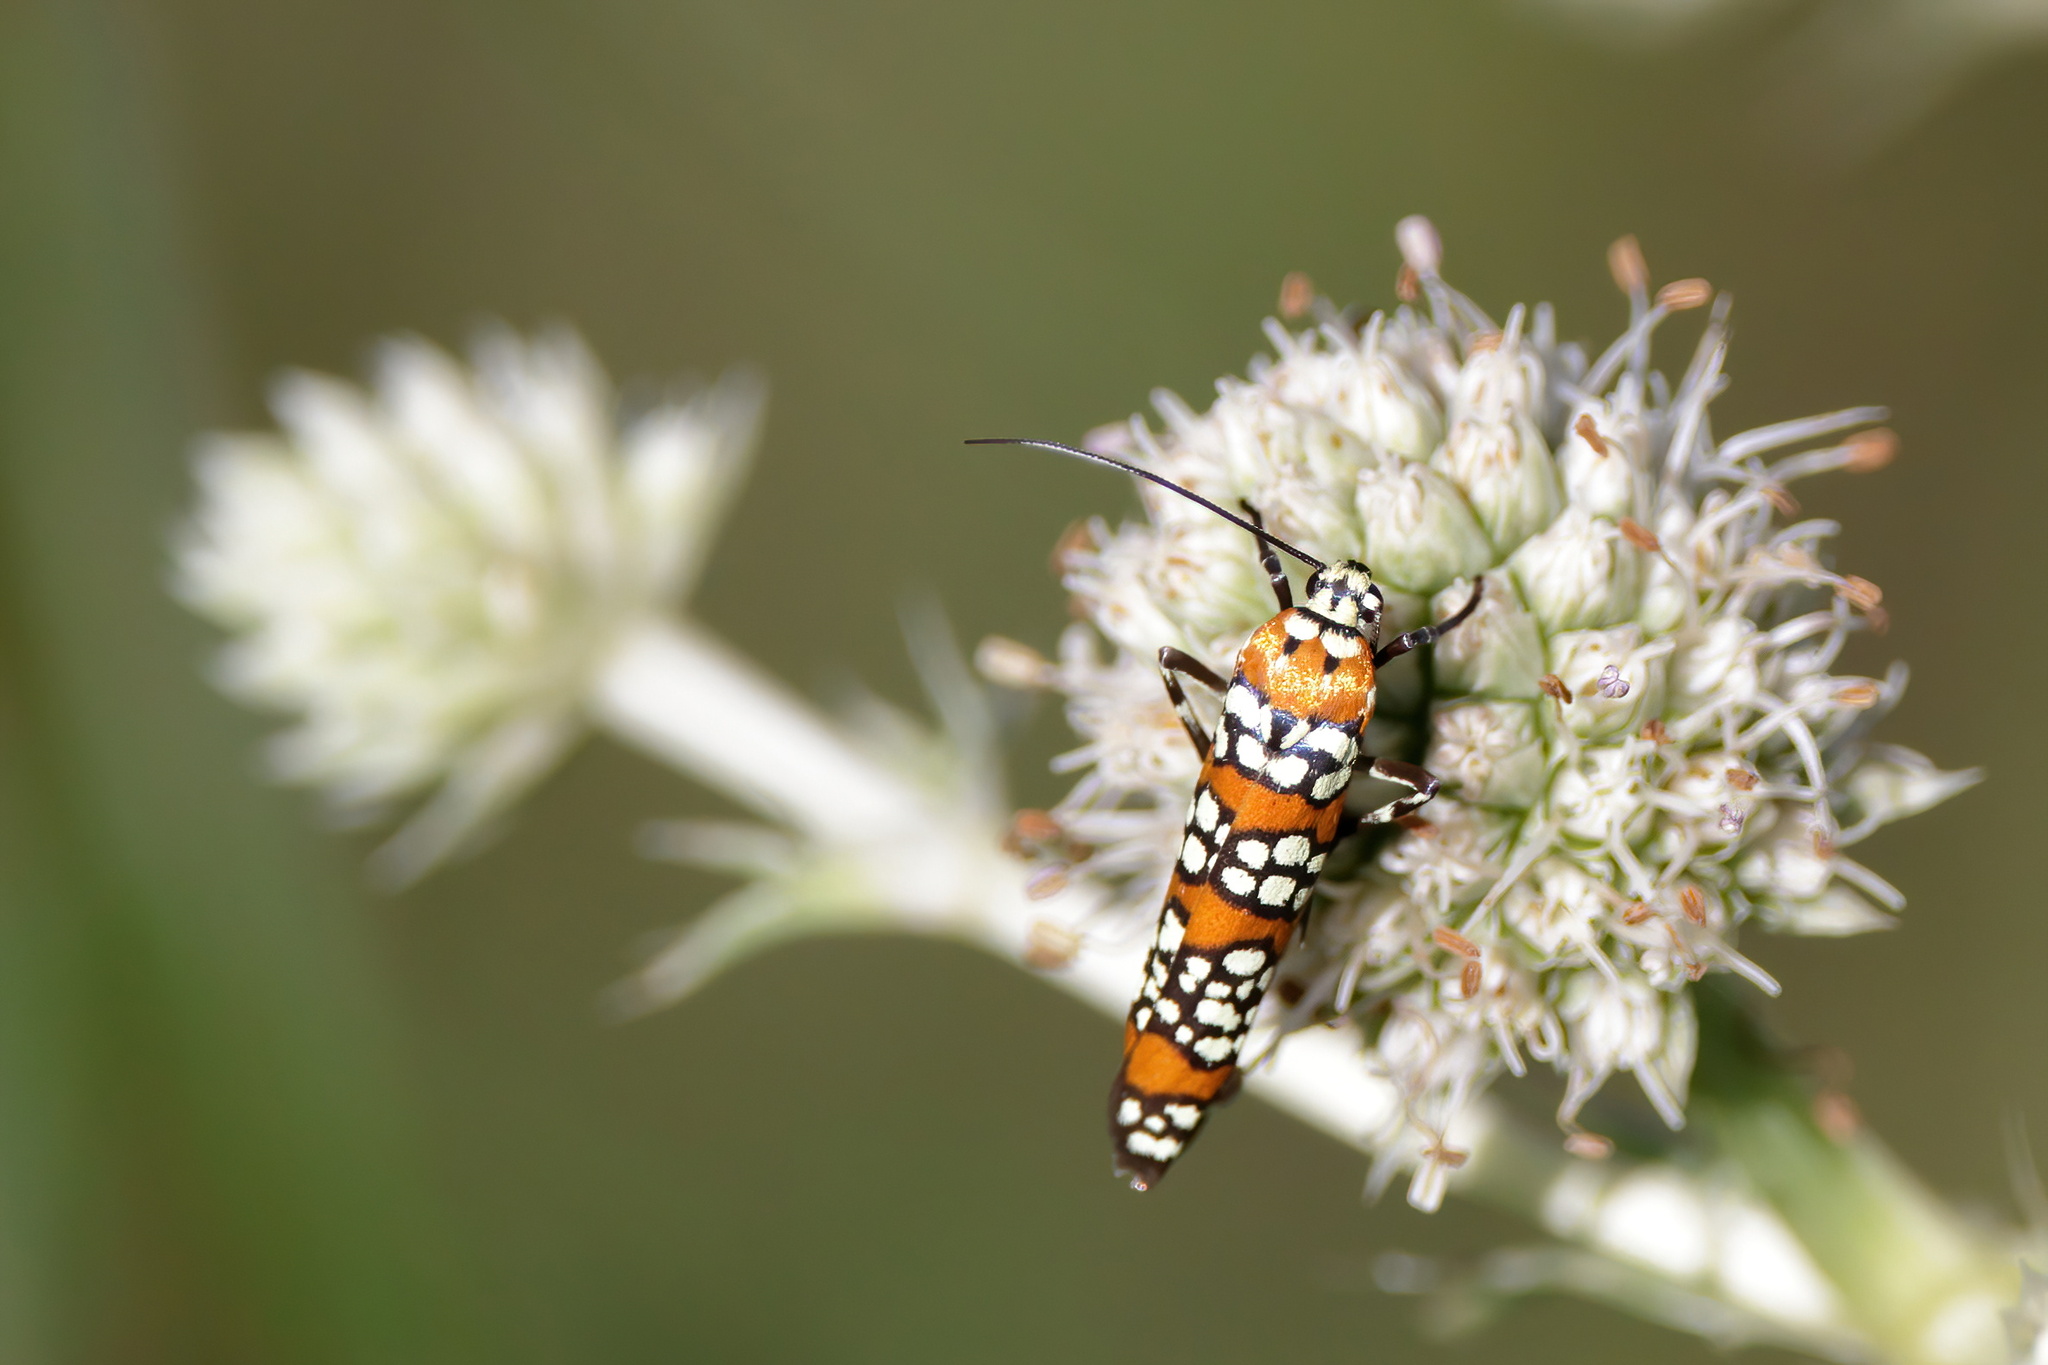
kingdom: Animalia
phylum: Arthropoda
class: Insecta
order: Lepidoptera
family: Attevidae
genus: Atteva
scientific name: Atteva punctella
